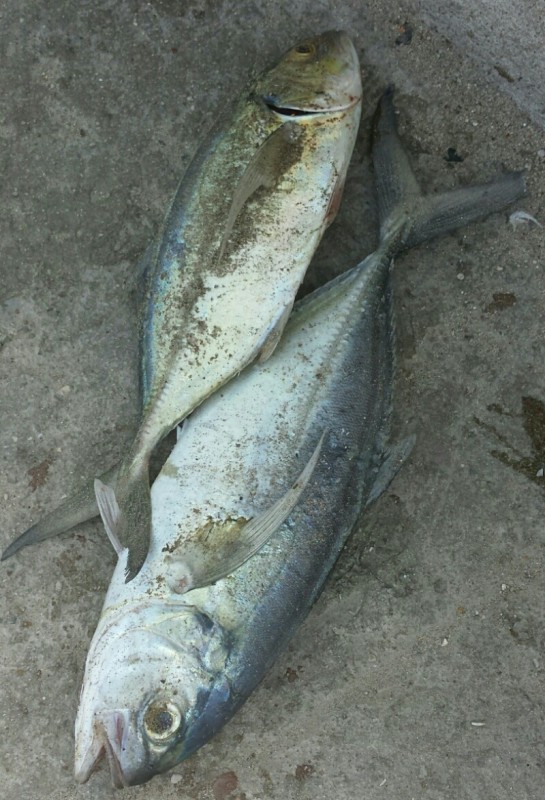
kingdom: Animalia
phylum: Chordata
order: Perciformes
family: Carangidae
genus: Caranx
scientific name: Caranx crysos
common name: Blue runner
